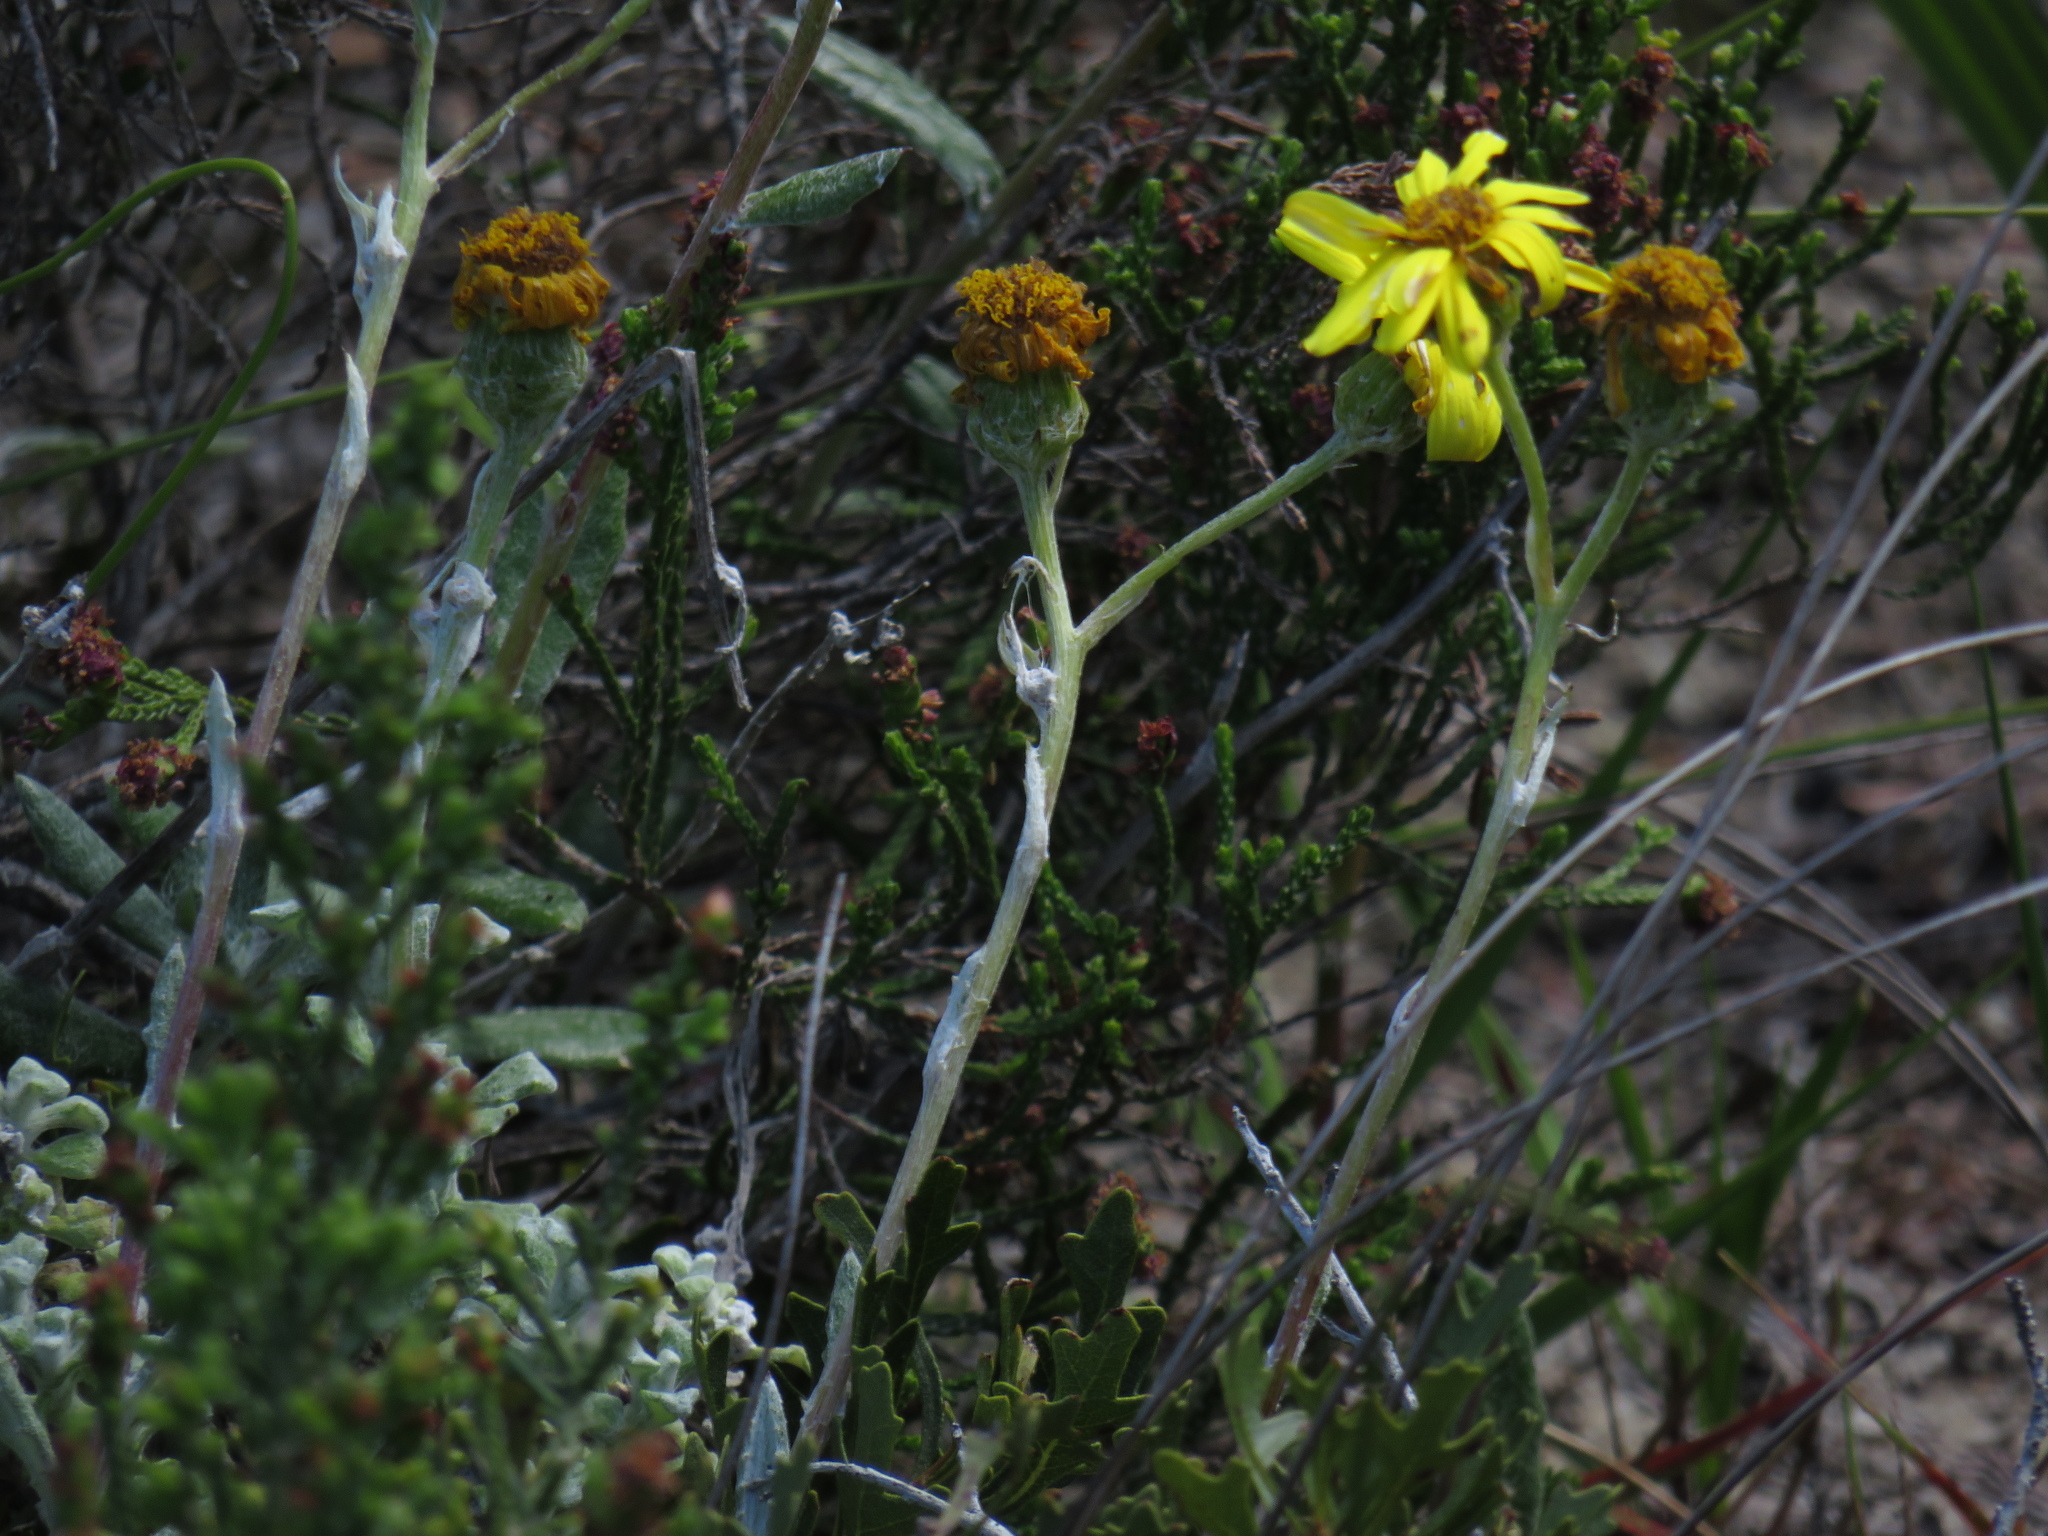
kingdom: Plantae
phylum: Tracheophyta
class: Magnoliopsida
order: Asterales
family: Asteraceae
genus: Senecio
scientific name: Senecio arniciflorus
